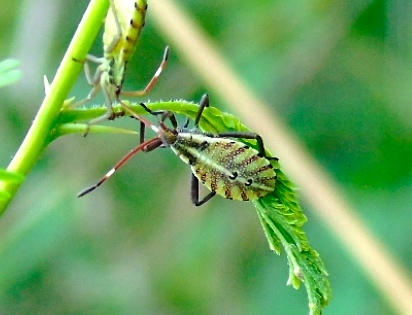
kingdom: Animalia
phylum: Arthropoda
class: Insecta
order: Hemiptera
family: Coreidae
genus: Mozena
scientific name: Mozena
